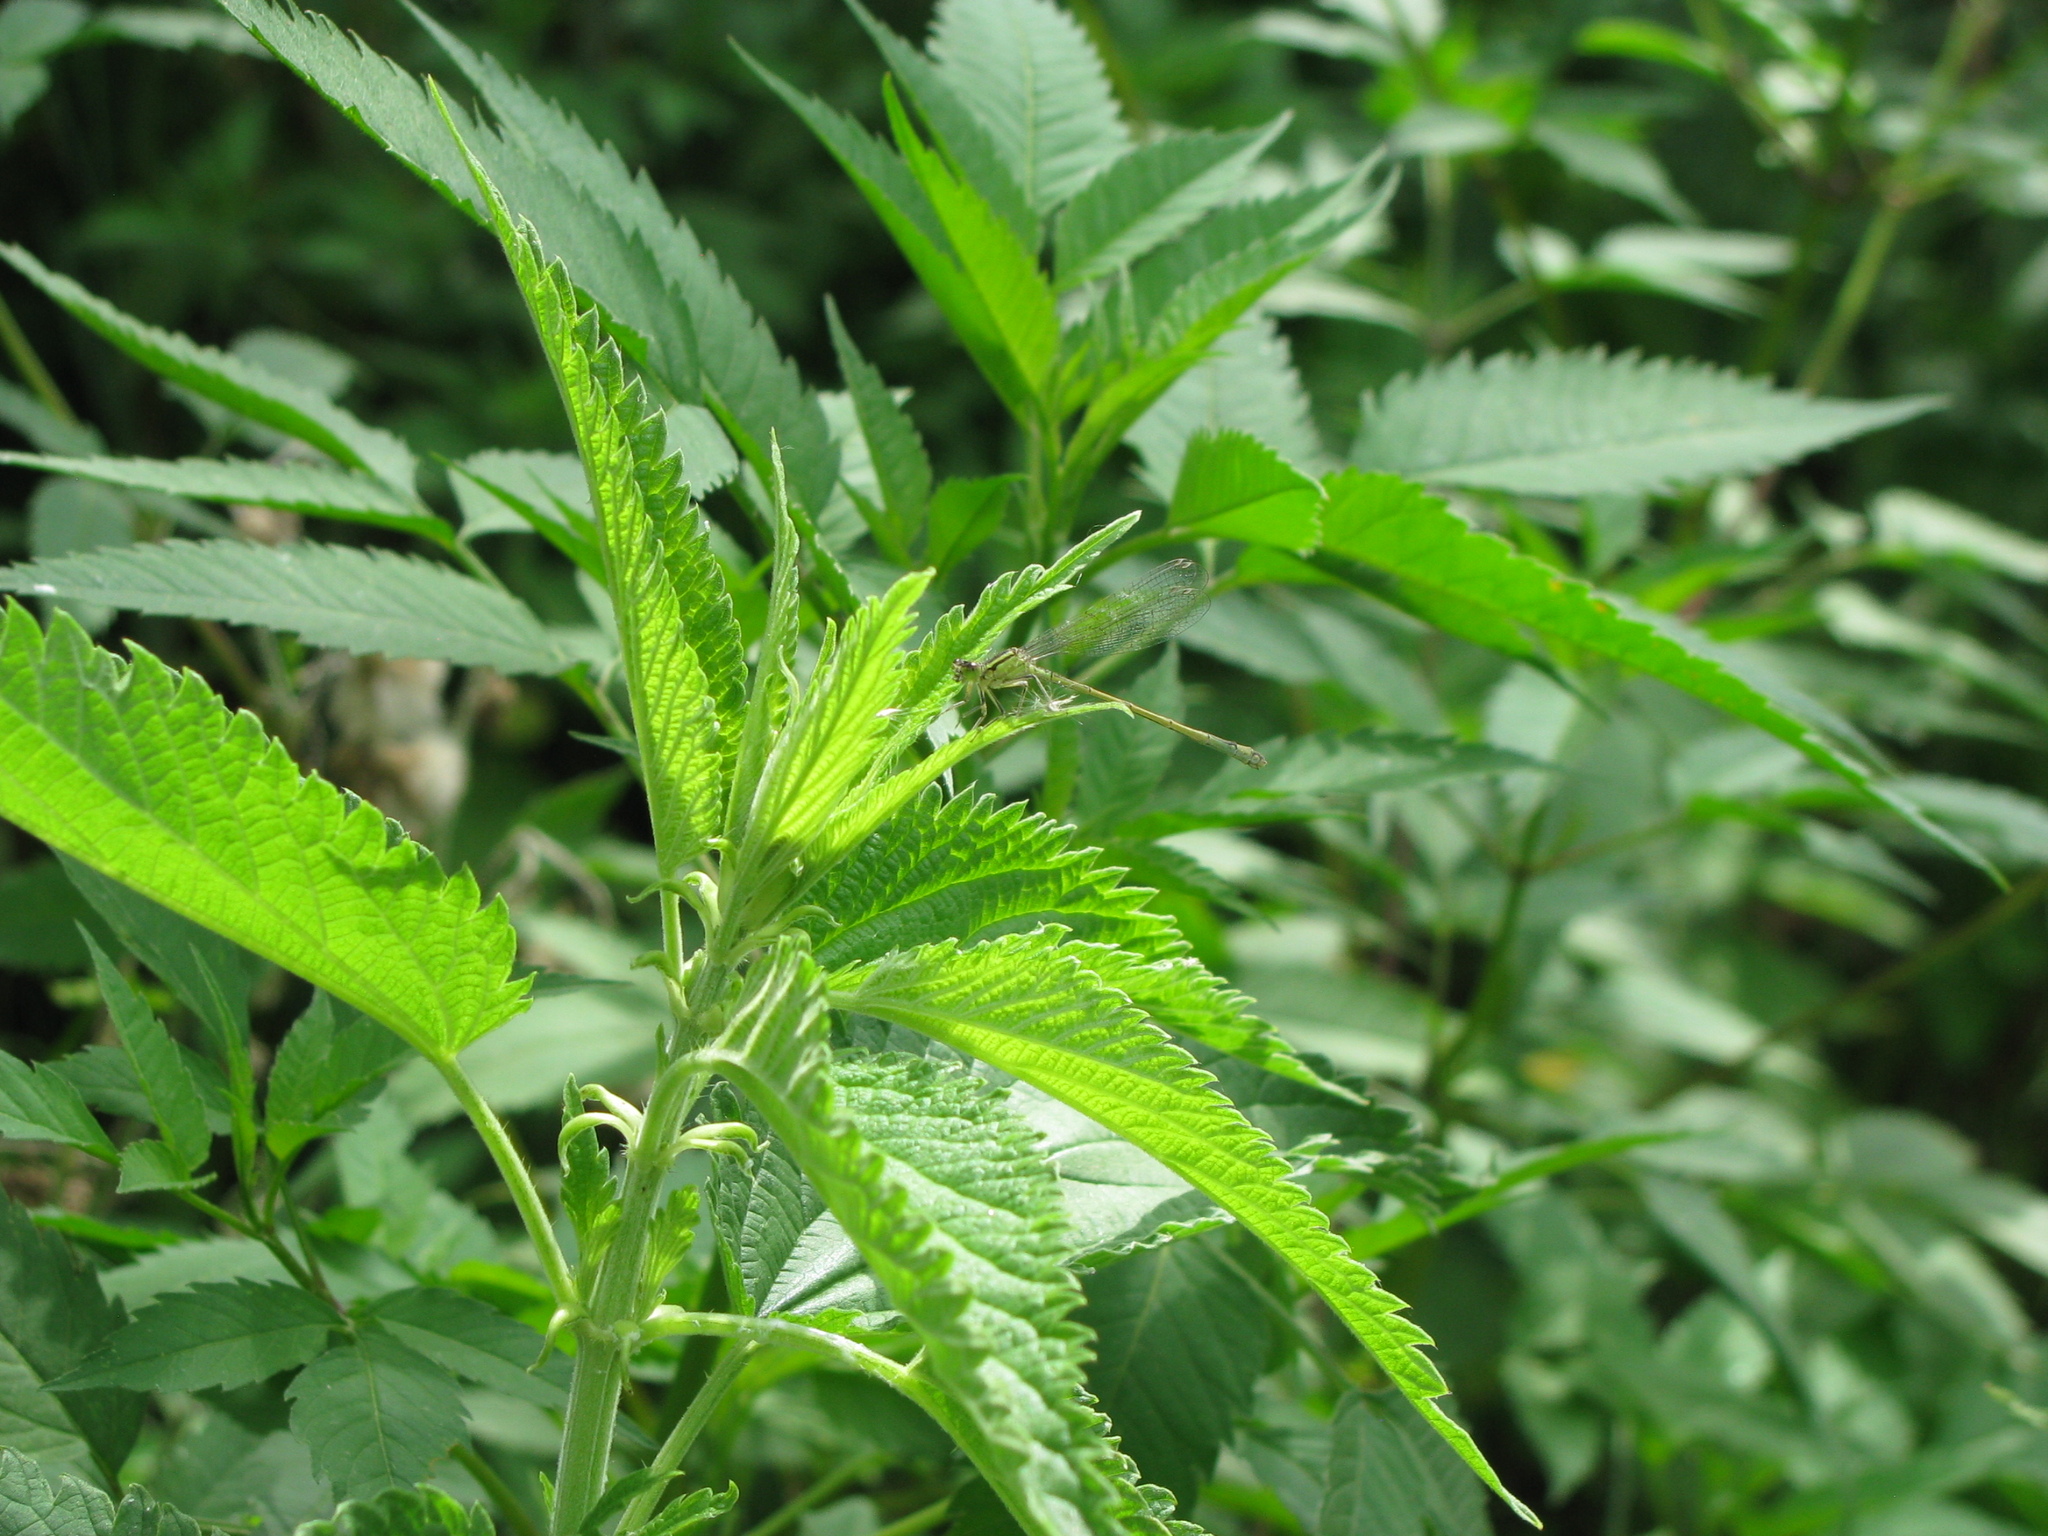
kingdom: Animalia
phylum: Arthropoda
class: Insecta
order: Odonata
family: Coenagrionidae
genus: Ischnura
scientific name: Ischnura elegans
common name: Blue-tailed damselfly
